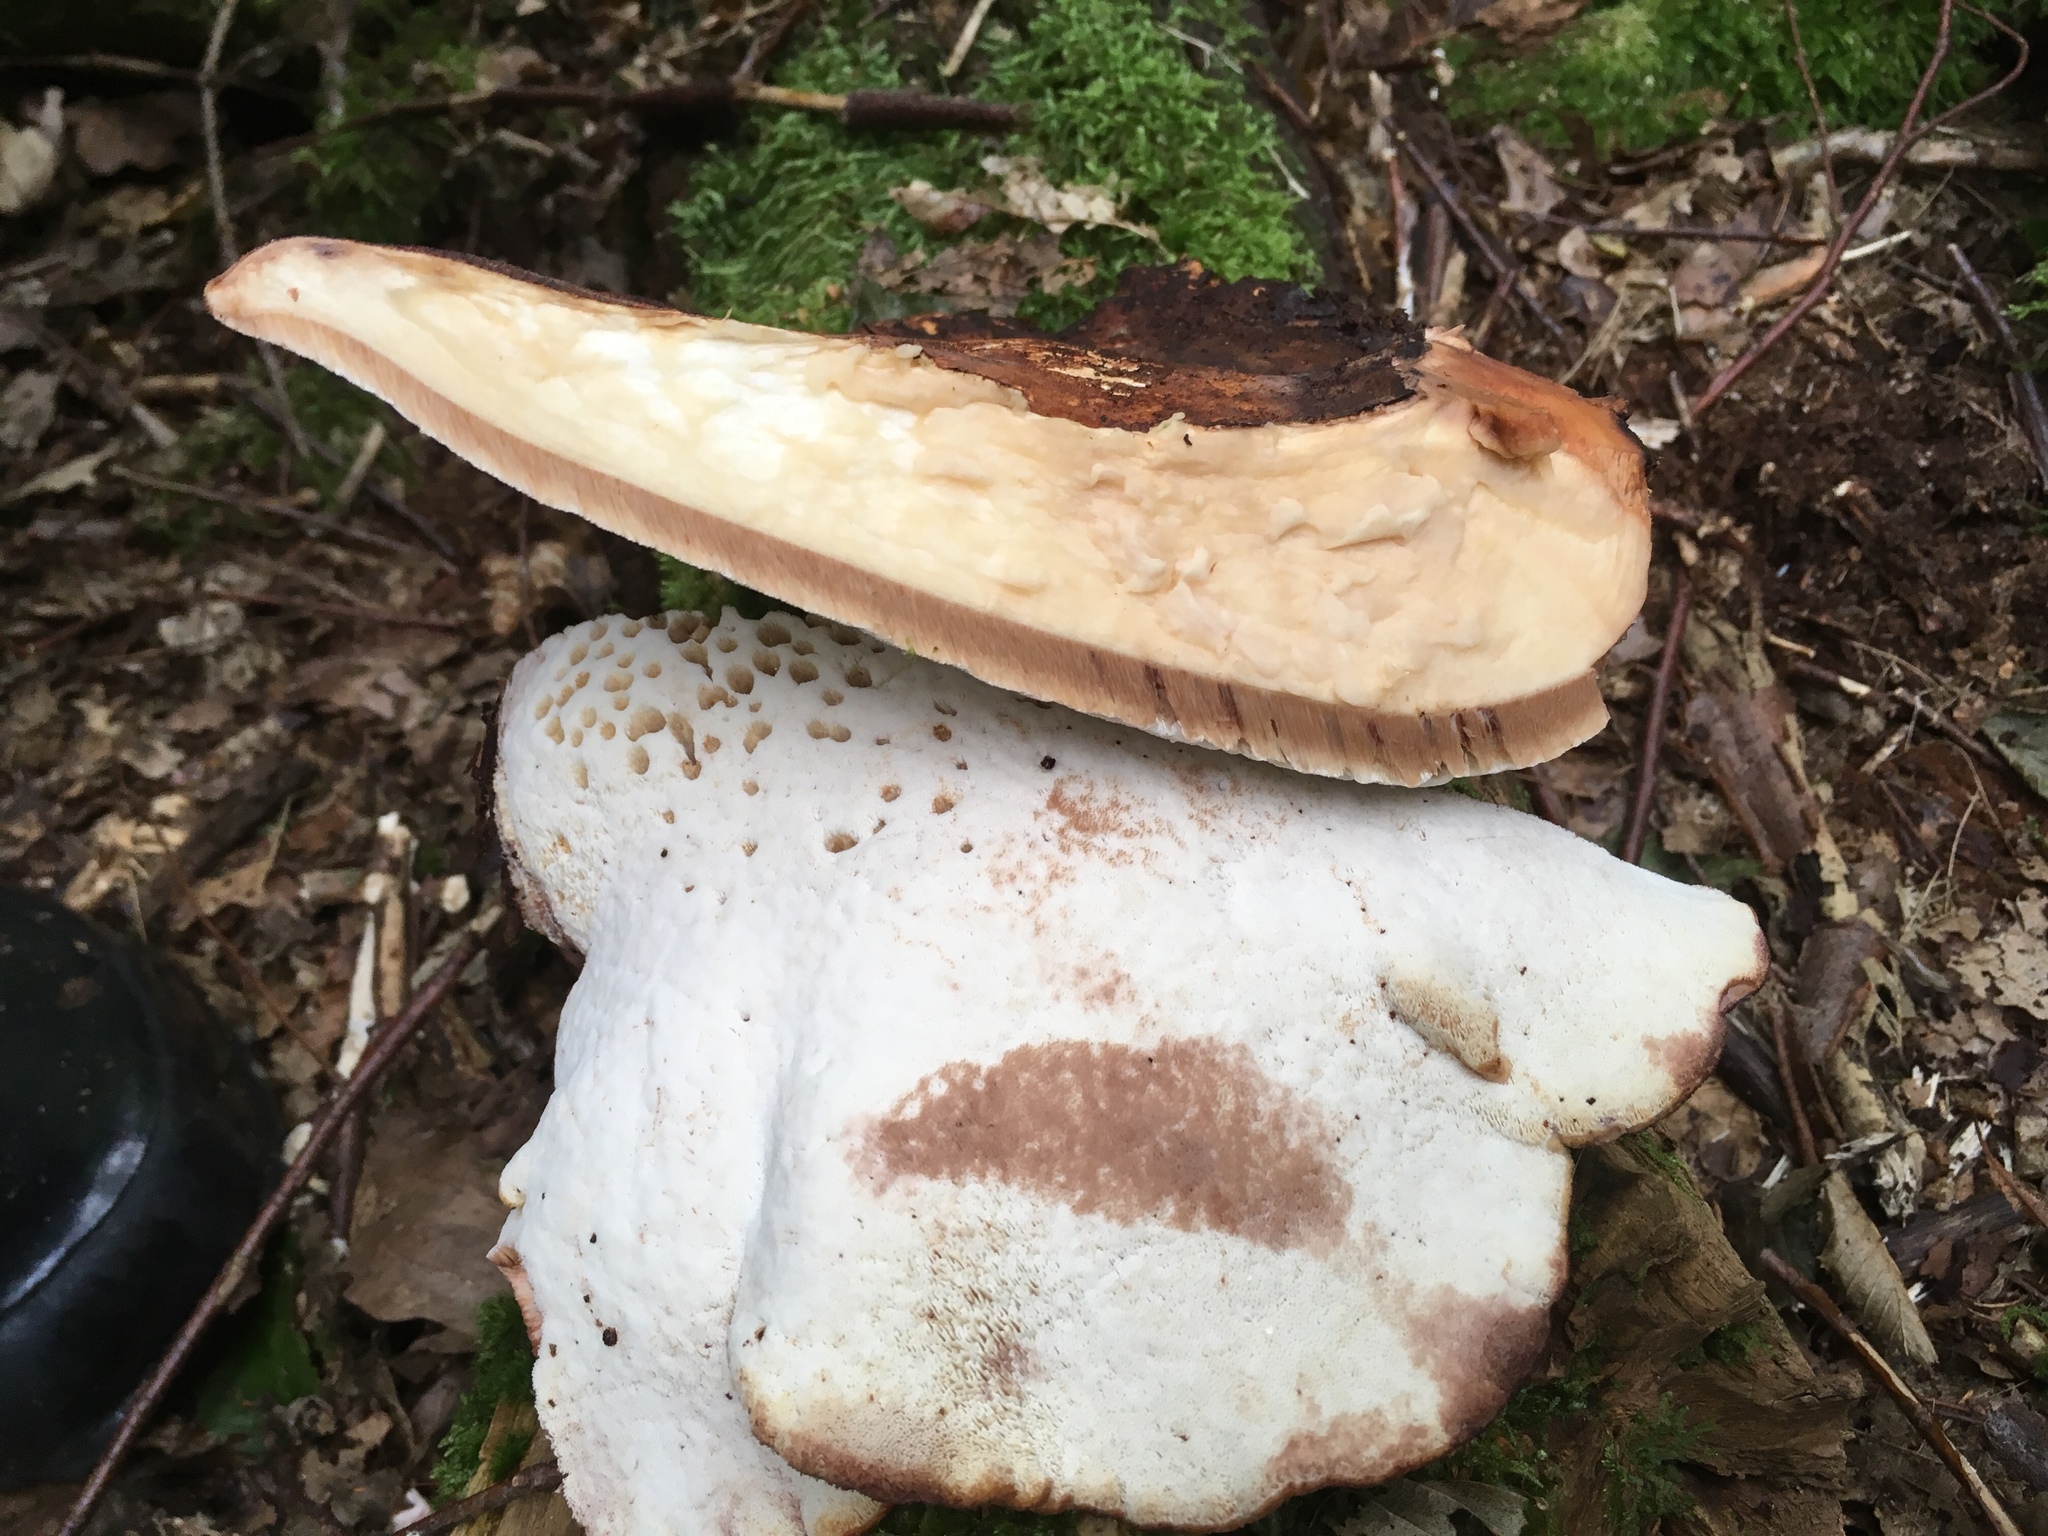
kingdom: Fungi
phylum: Basidiomycota
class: Agaricomycetes
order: Polyporales
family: Fomitopsidaceae
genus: Fomitopsis
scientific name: Fomitopsis
